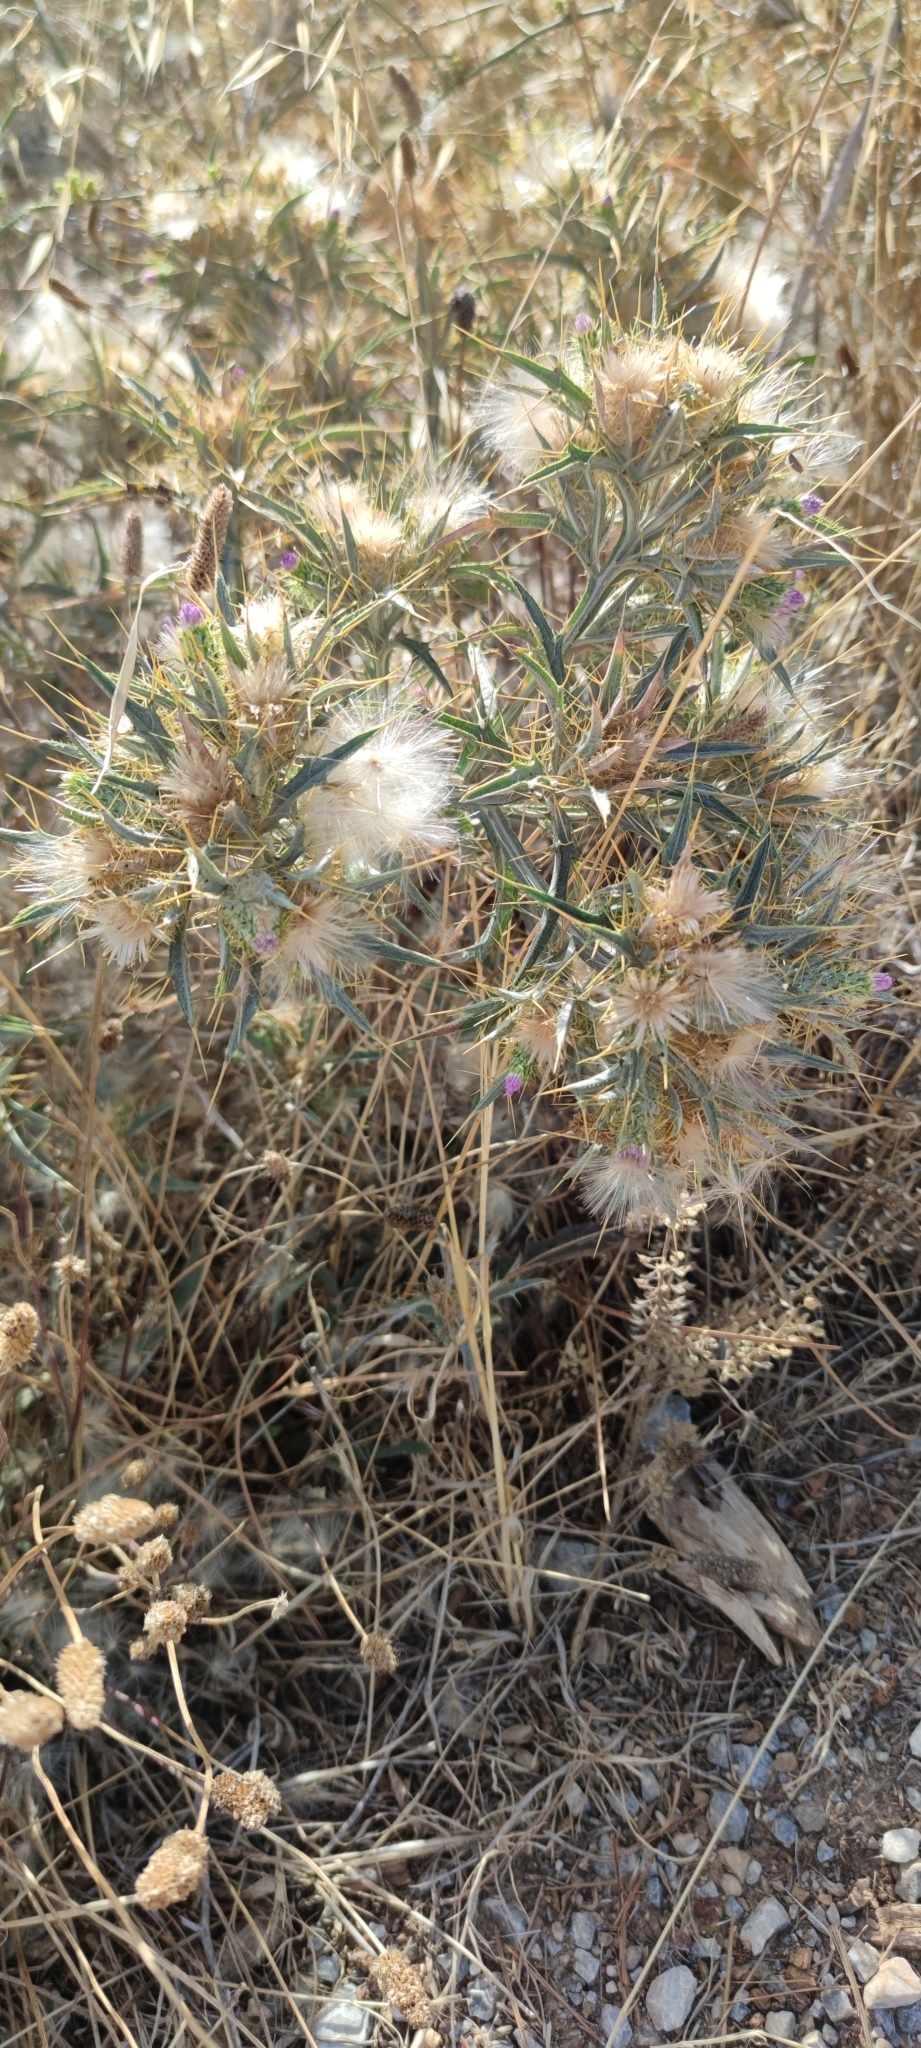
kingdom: Plantae
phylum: Tracheophyta
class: Magnoliopsida
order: Asterales
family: Asteraceae
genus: Picnomon
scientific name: Picnomon acarna
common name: Soldier thistle
